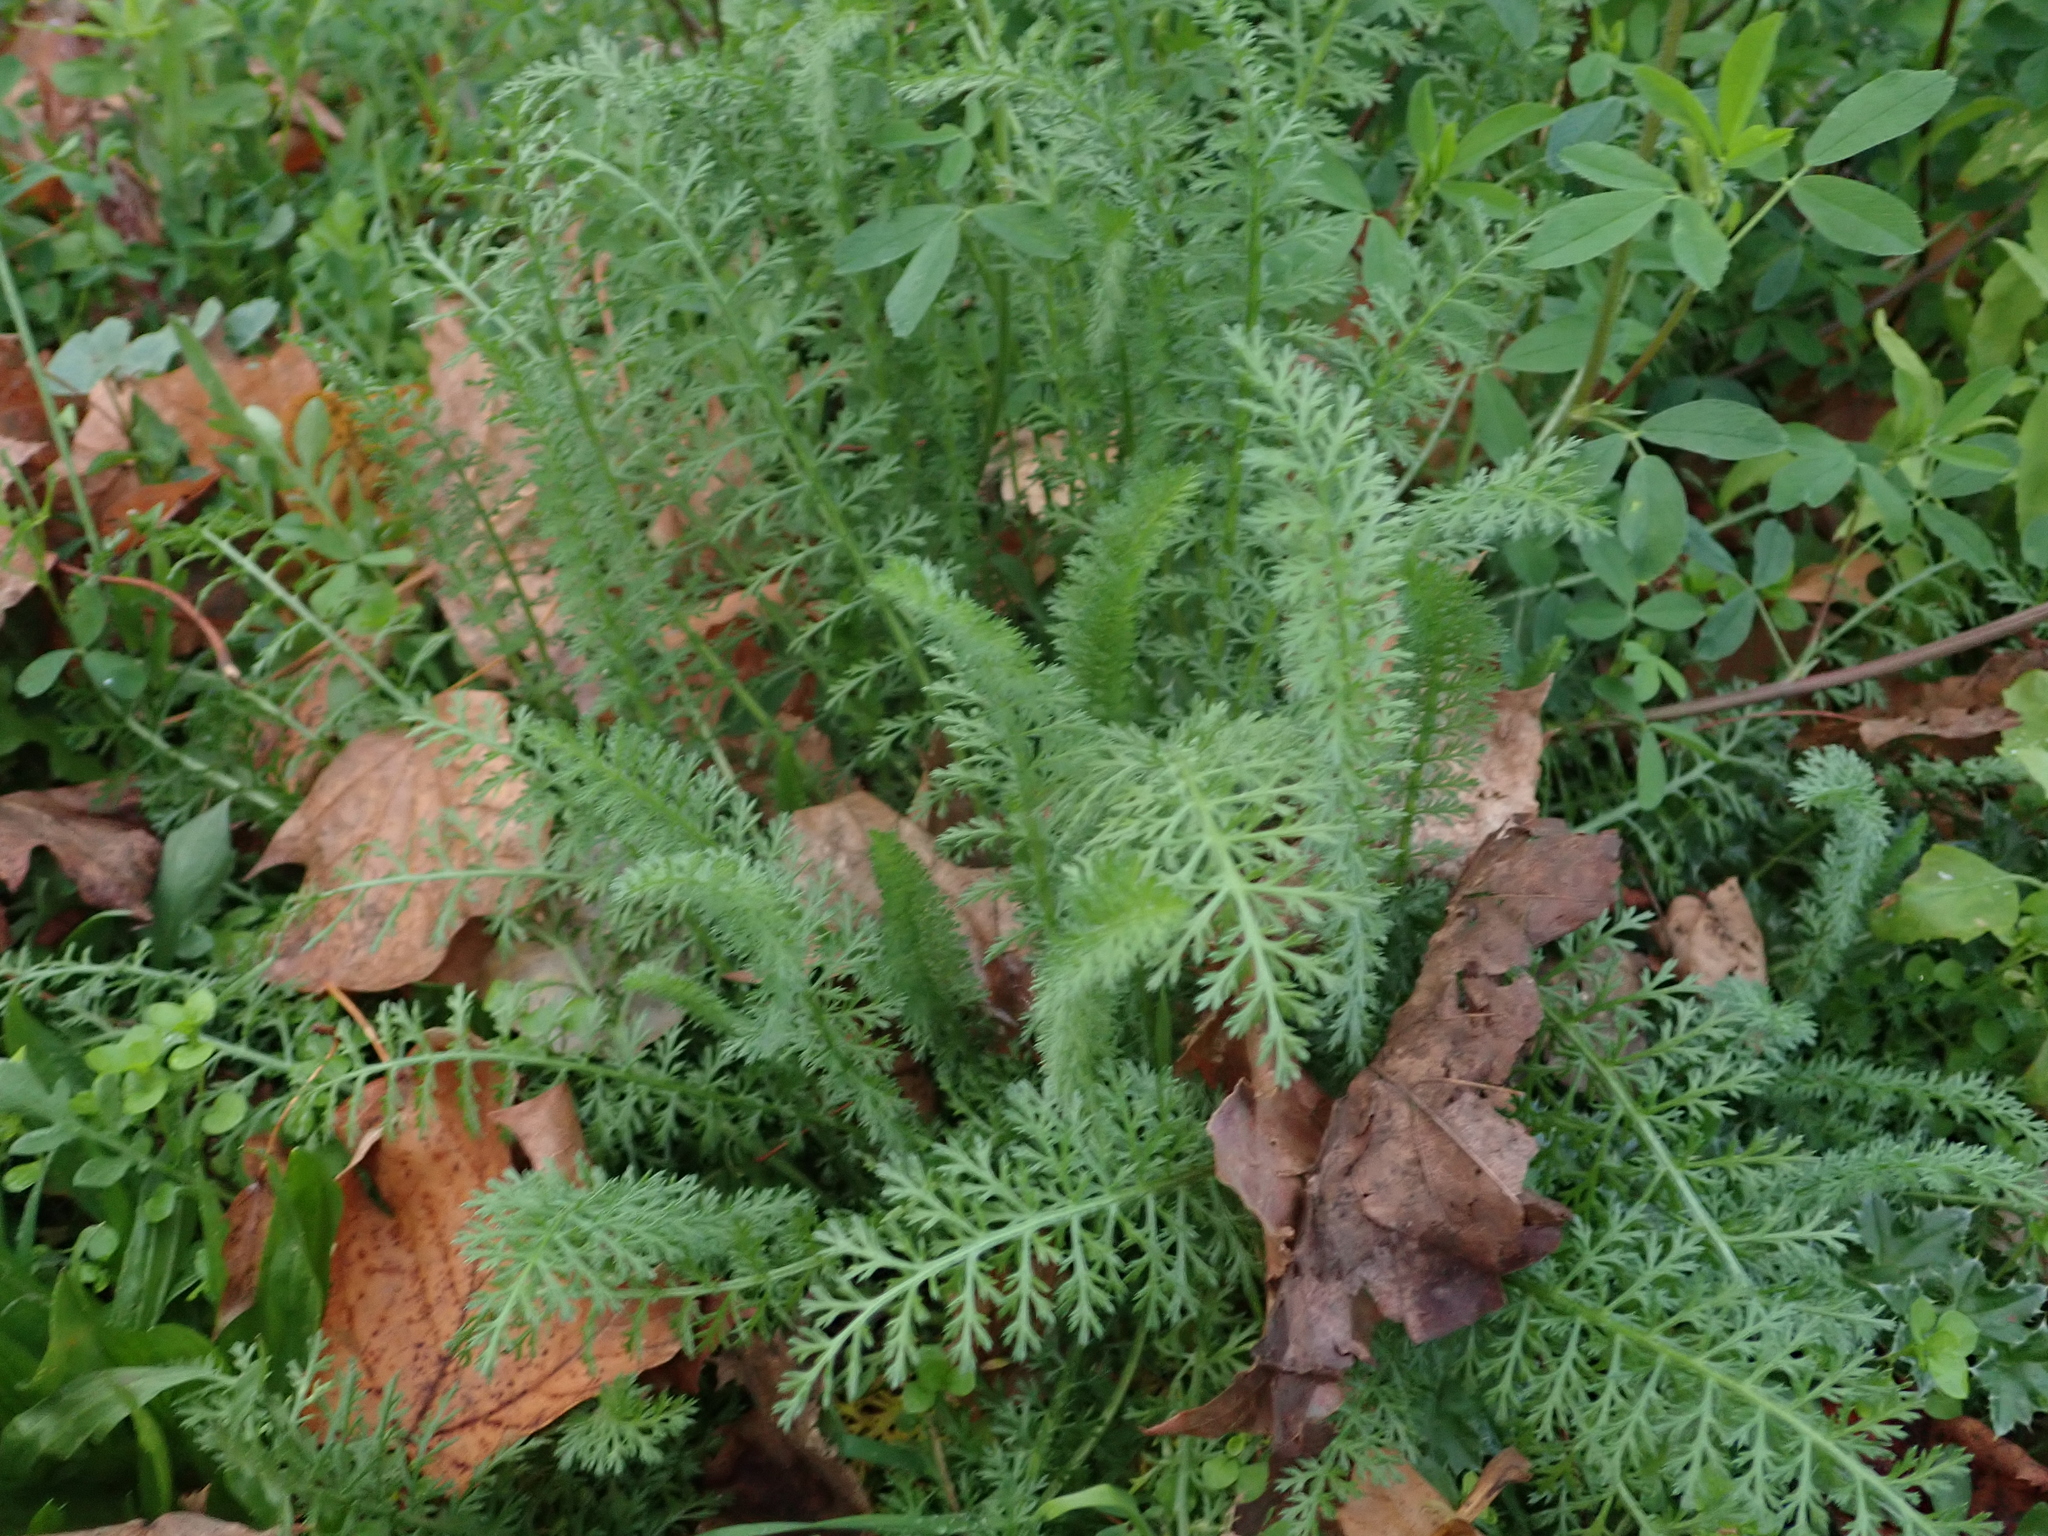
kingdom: Plantae
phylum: Tracheophyta
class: Magnoliopsida
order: Asterales
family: Asteraceae
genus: Achillea
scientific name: Achillea millefolium
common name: Yarrow
